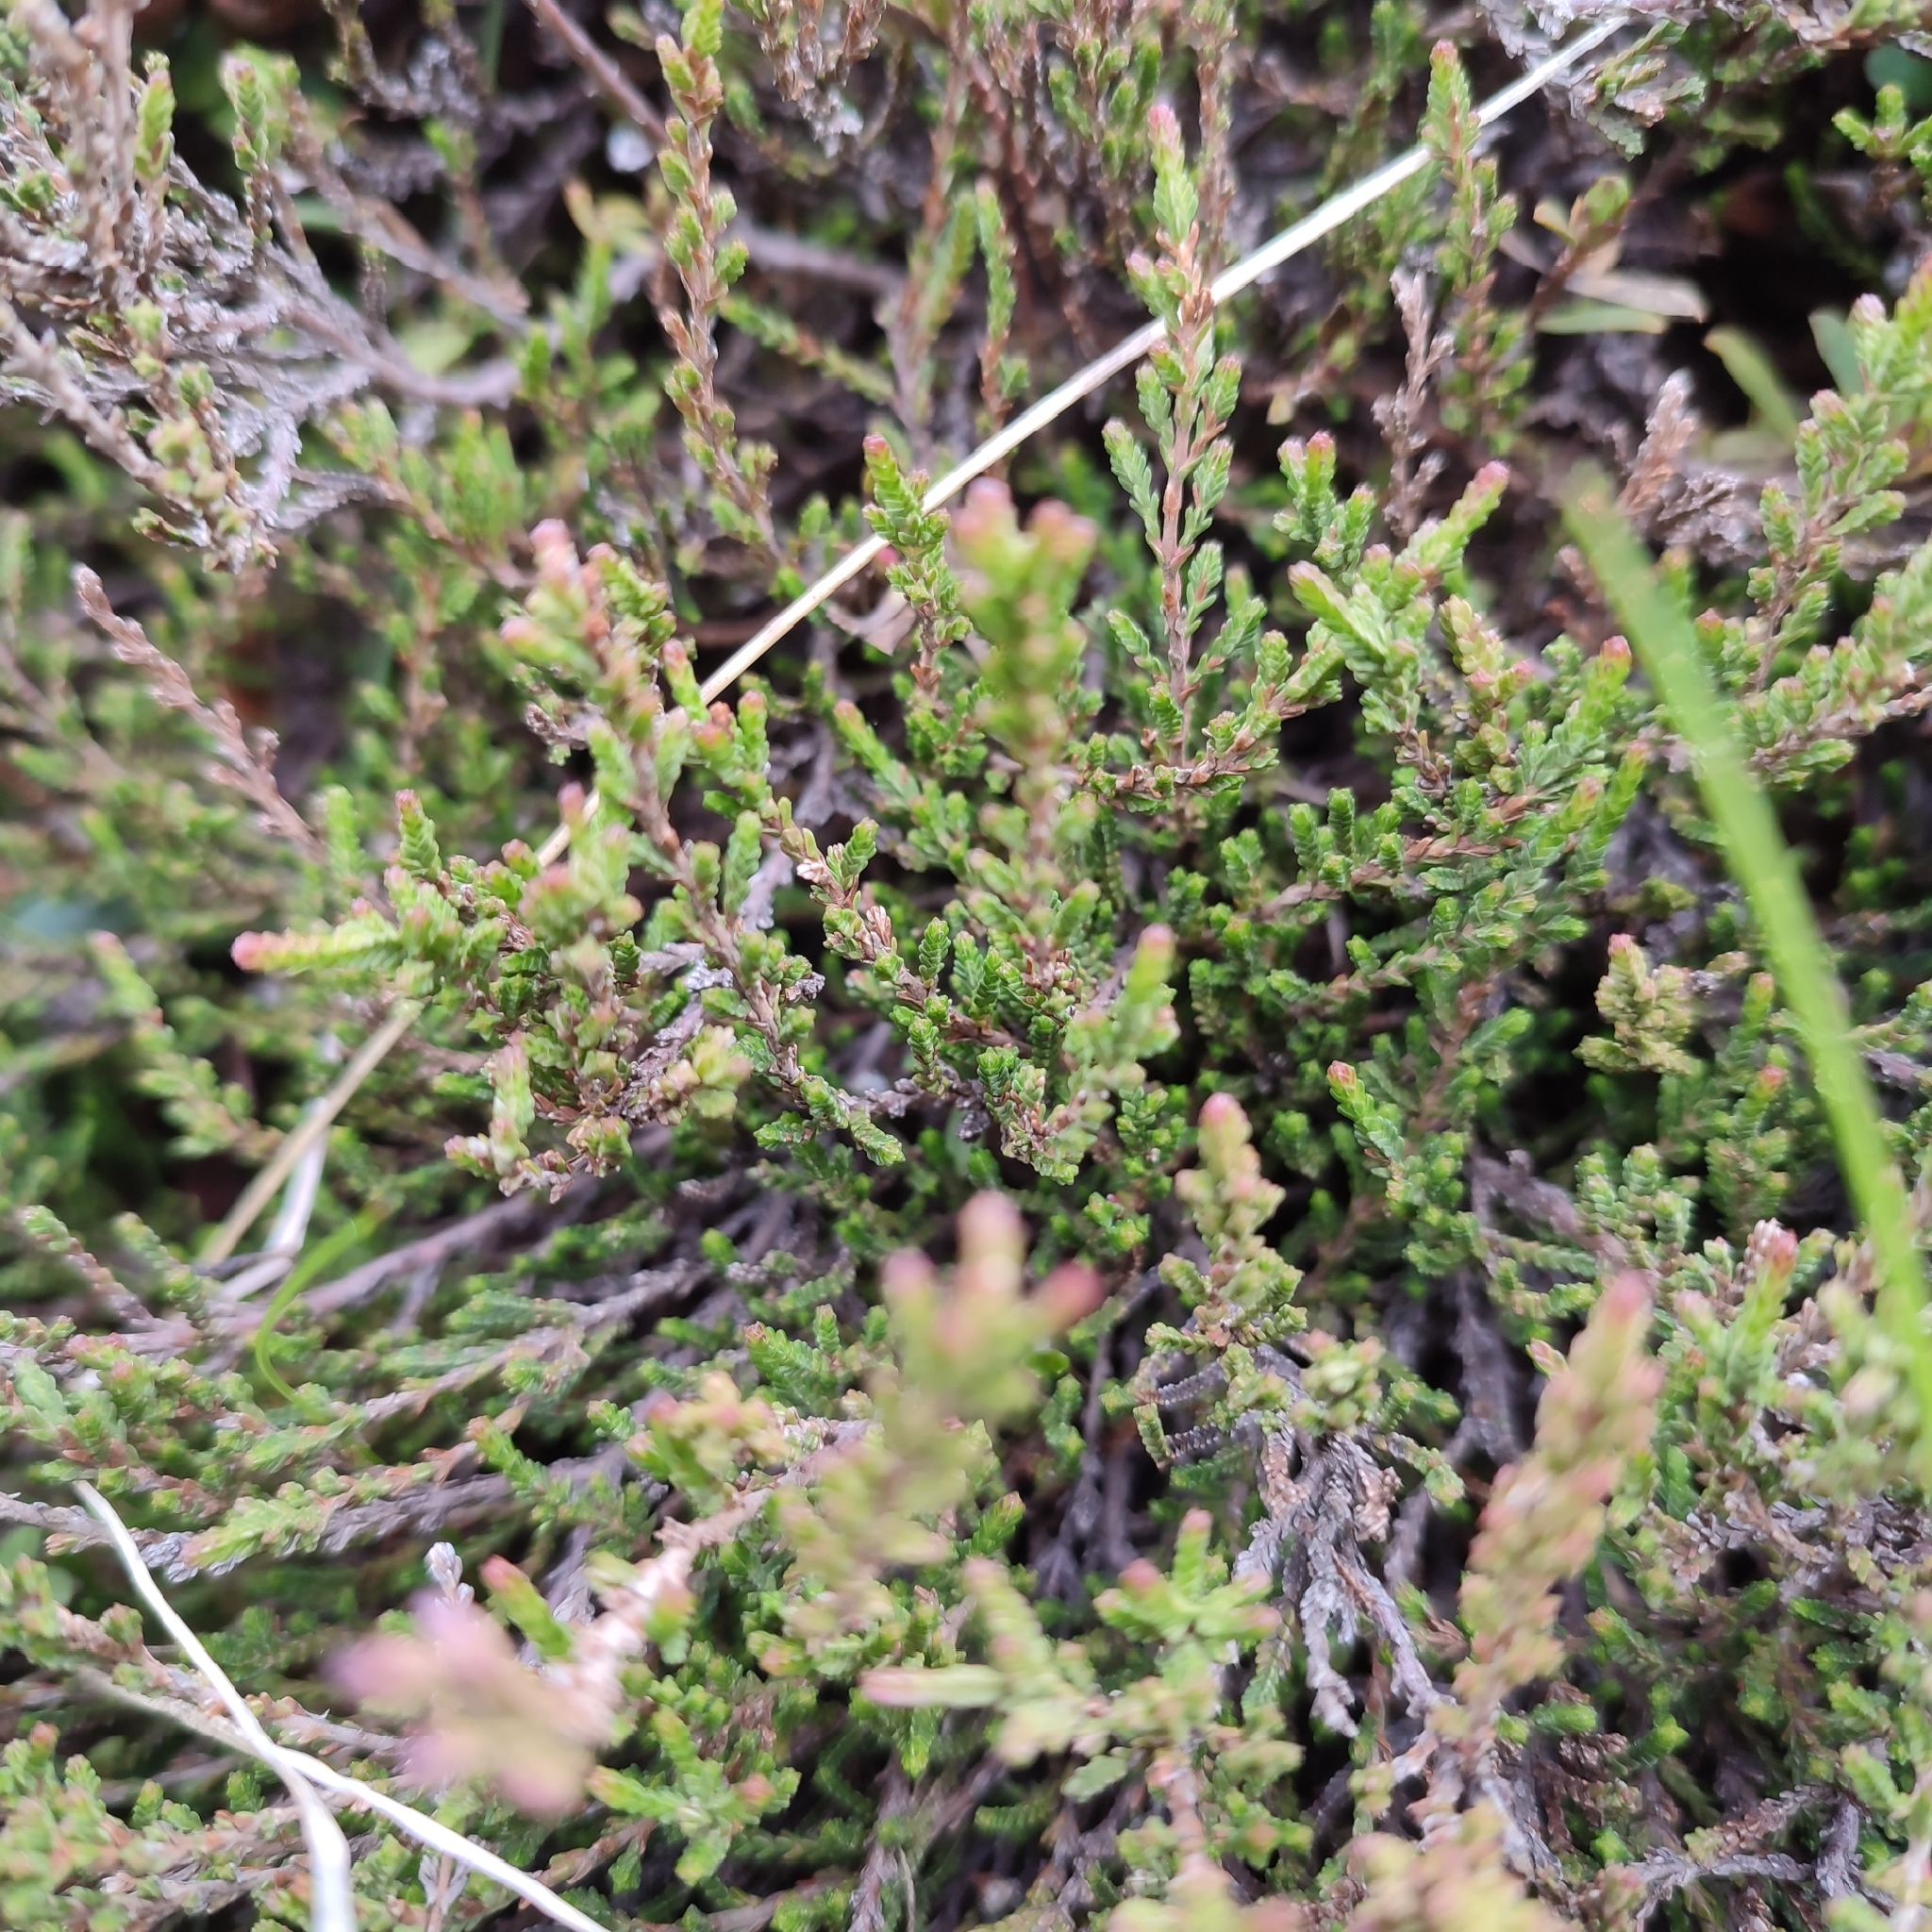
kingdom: Plantae
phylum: Tracheophyta
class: Magnoliopsida
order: Ericales
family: Ericaceae
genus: Calluna
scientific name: Calluna vulgaris
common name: Heather
